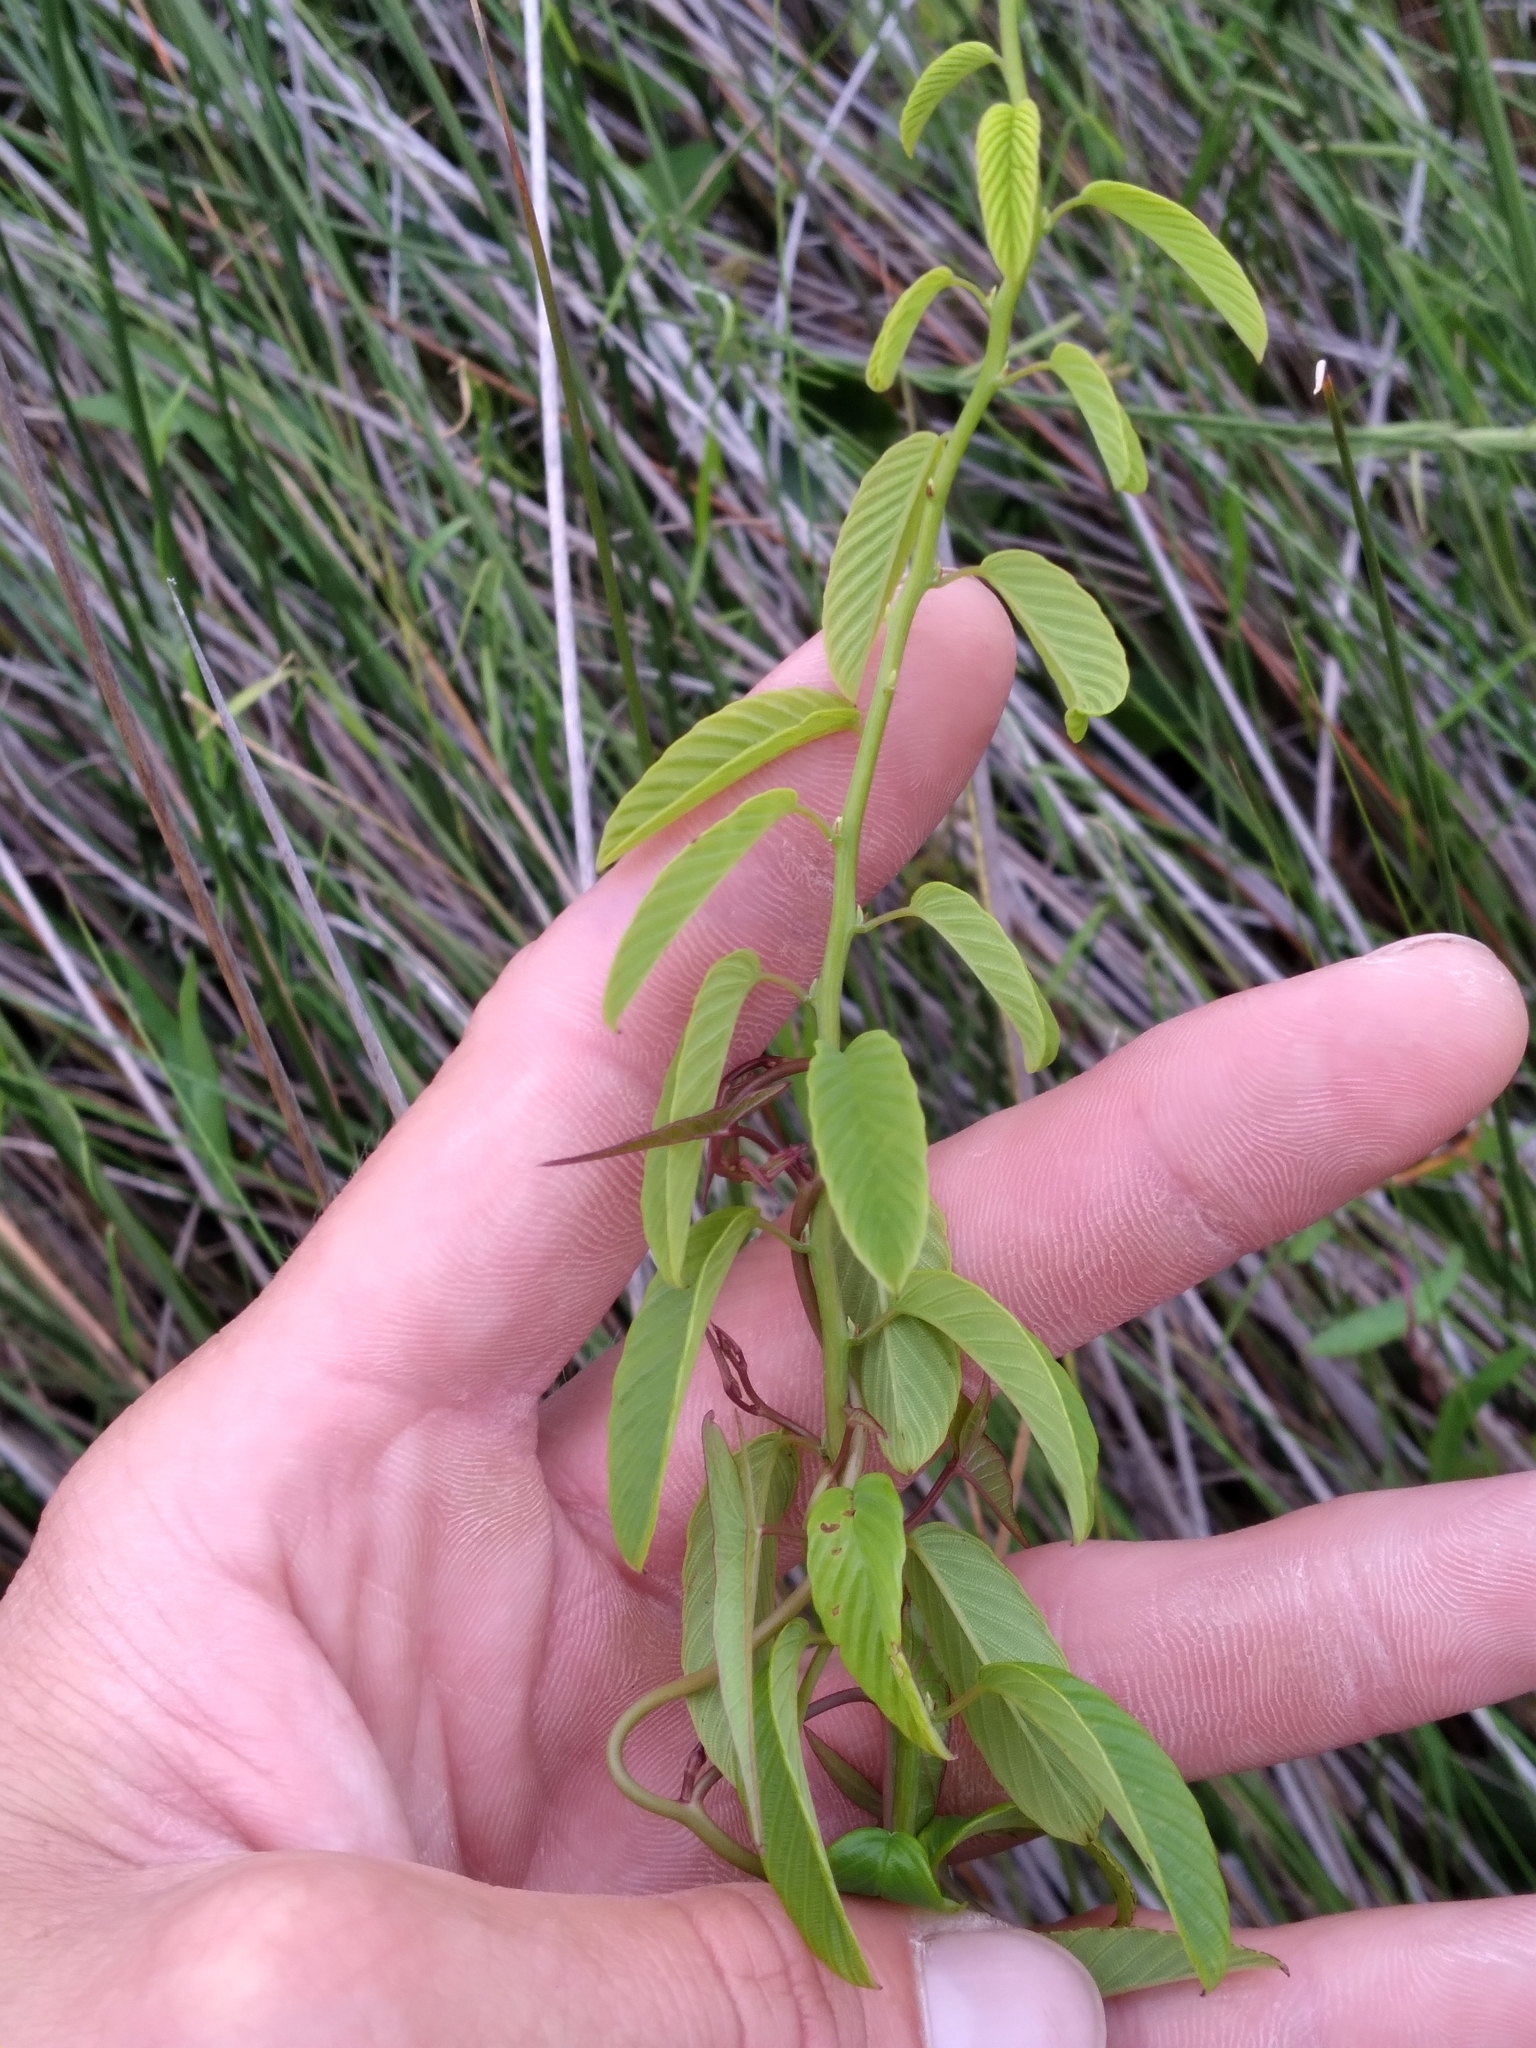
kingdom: Plantae
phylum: Tracheophyta
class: Magnoliopsida
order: Rosales
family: Rhamnaceae
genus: Berchemia
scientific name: Berchemia scandens
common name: Supplejack
